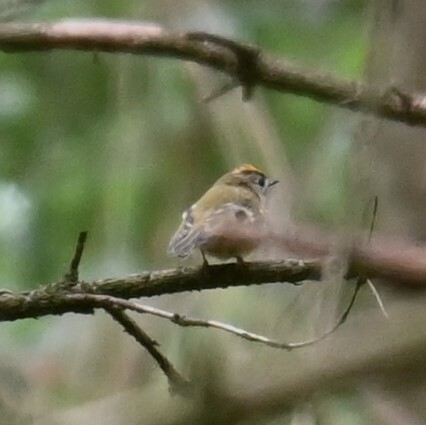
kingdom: Animalia
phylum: Chordata
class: Aves
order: Passeriformes
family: Regulidae
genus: Regulus
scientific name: Regulus regulus
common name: Goldcrest
